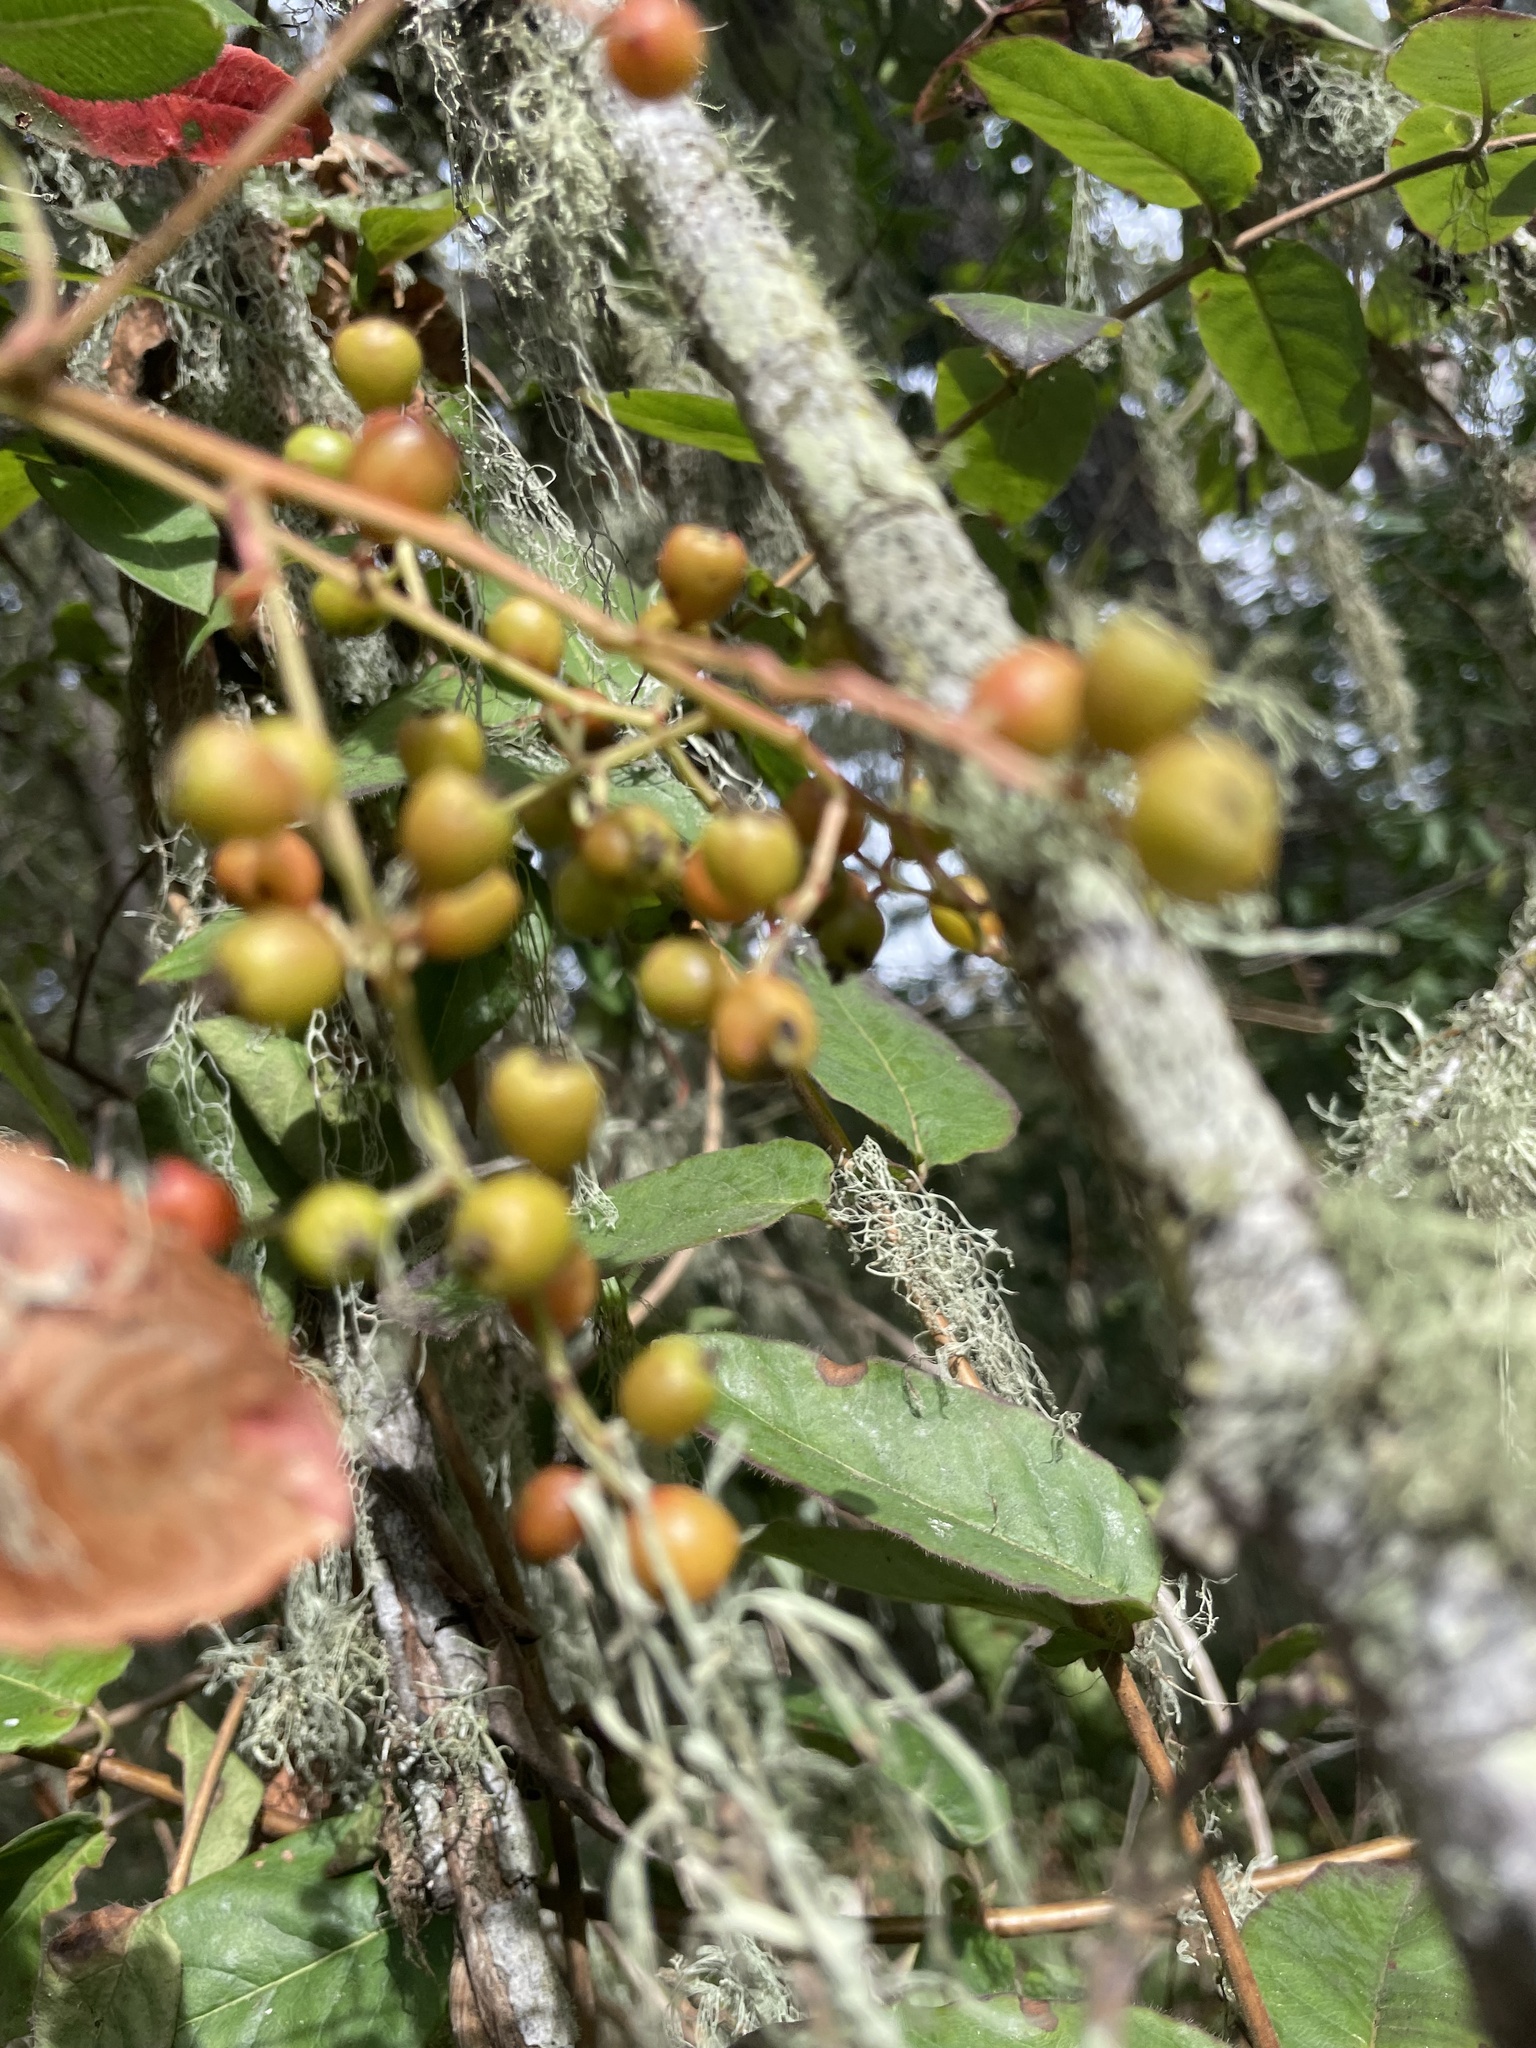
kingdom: Plantae
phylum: Tracheophyta
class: Magnoliopsida
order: Rosales
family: Rosaceae
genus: Heteromeles
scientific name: Heteromeles arbutifolia
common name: California-holly
